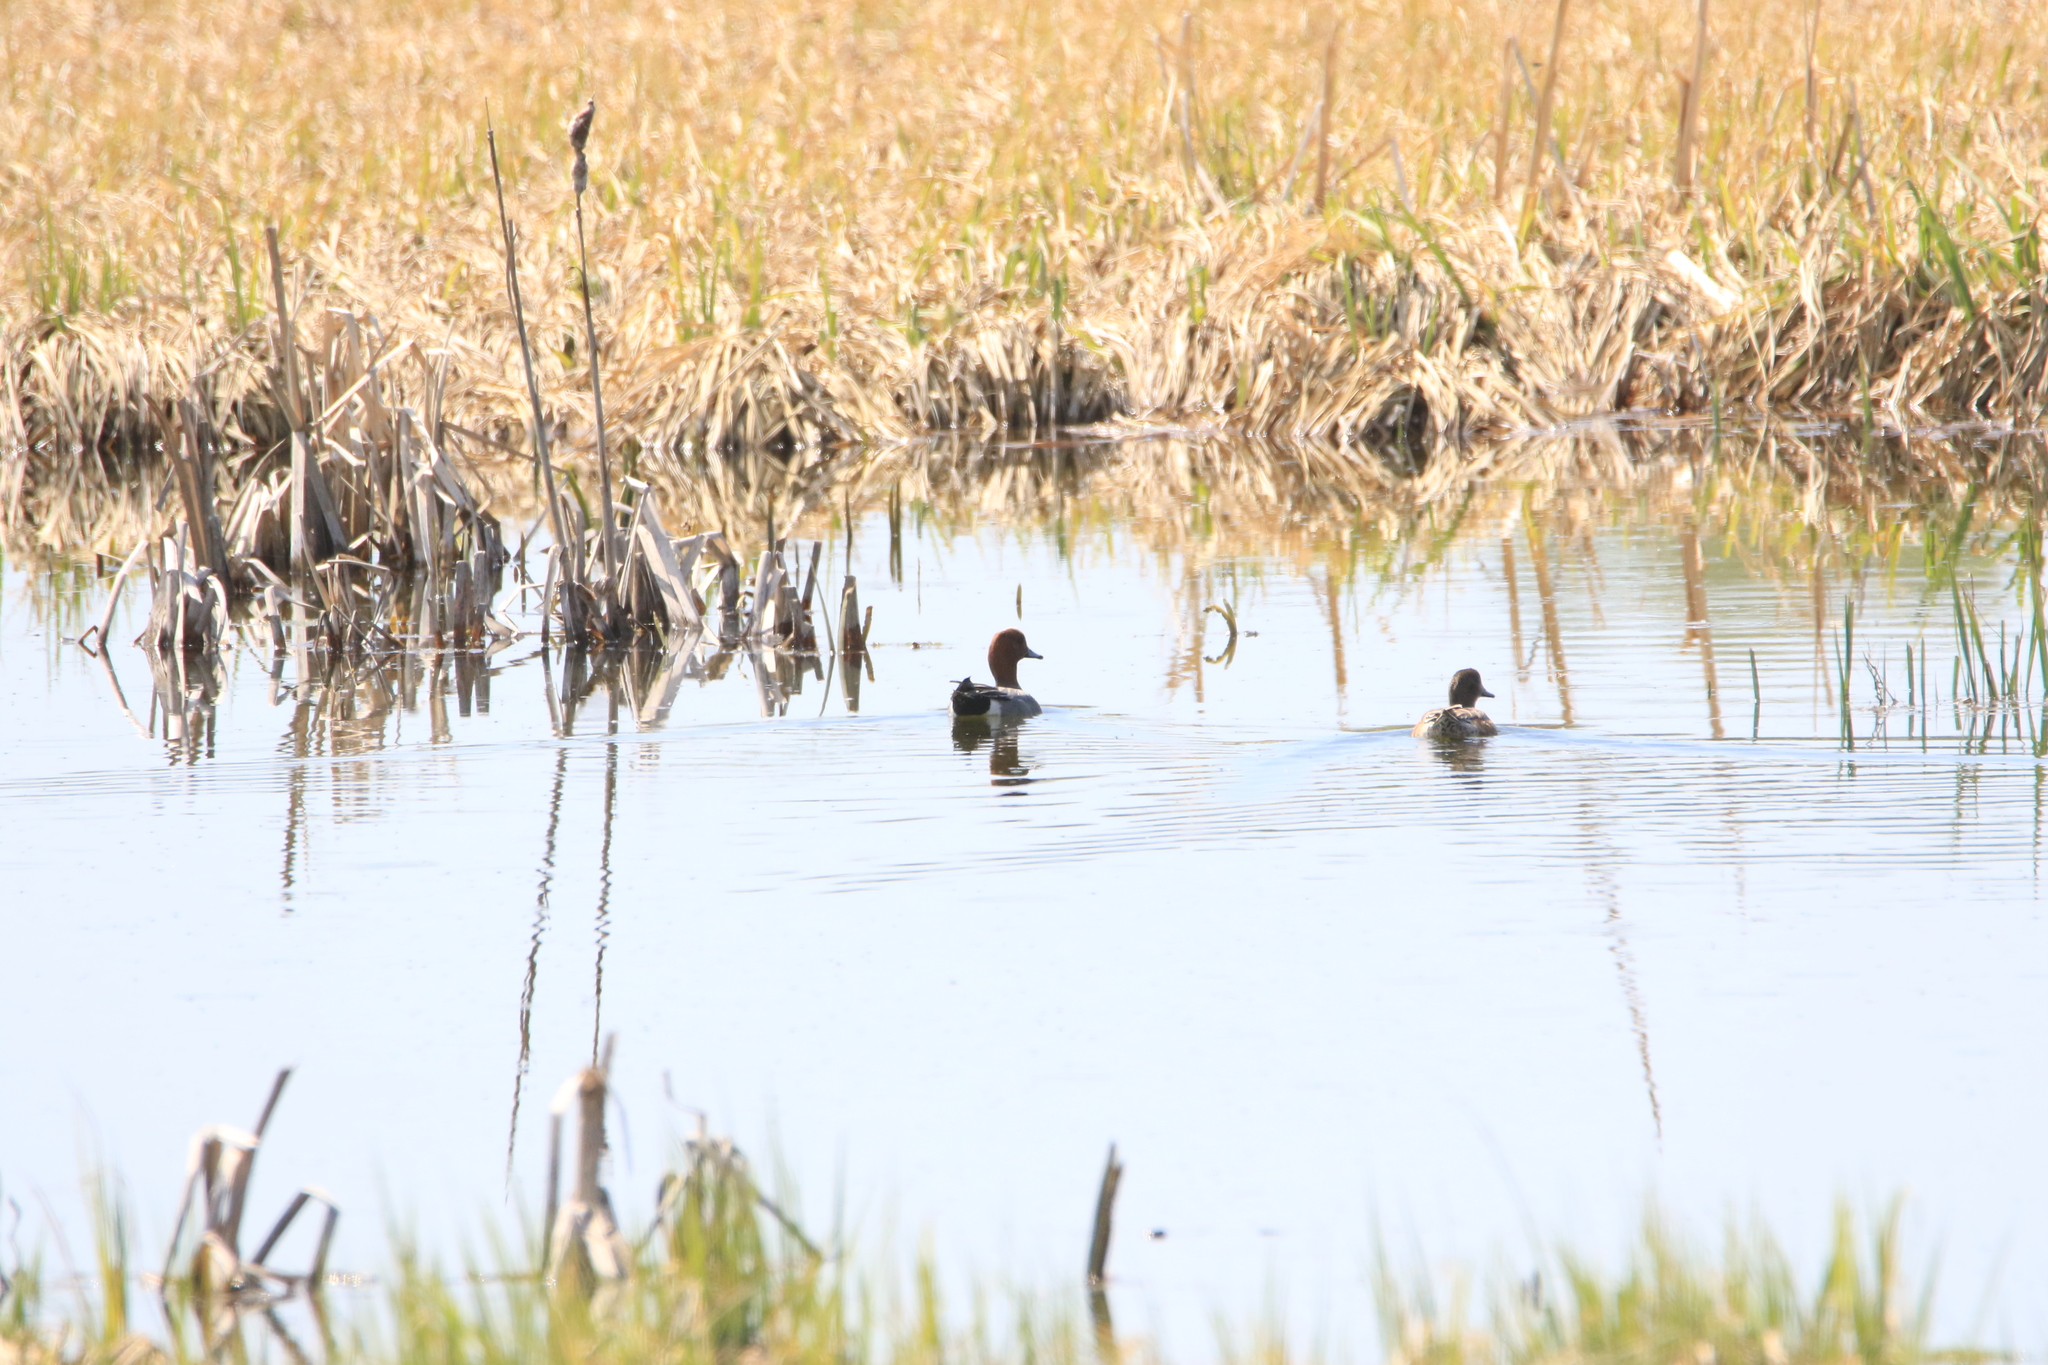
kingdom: Animalia
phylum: Chordata
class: Aves
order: Anseriformes
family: Anatidae
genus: Mareca
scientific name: Mareca penelope
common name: Eurasian wigeon
